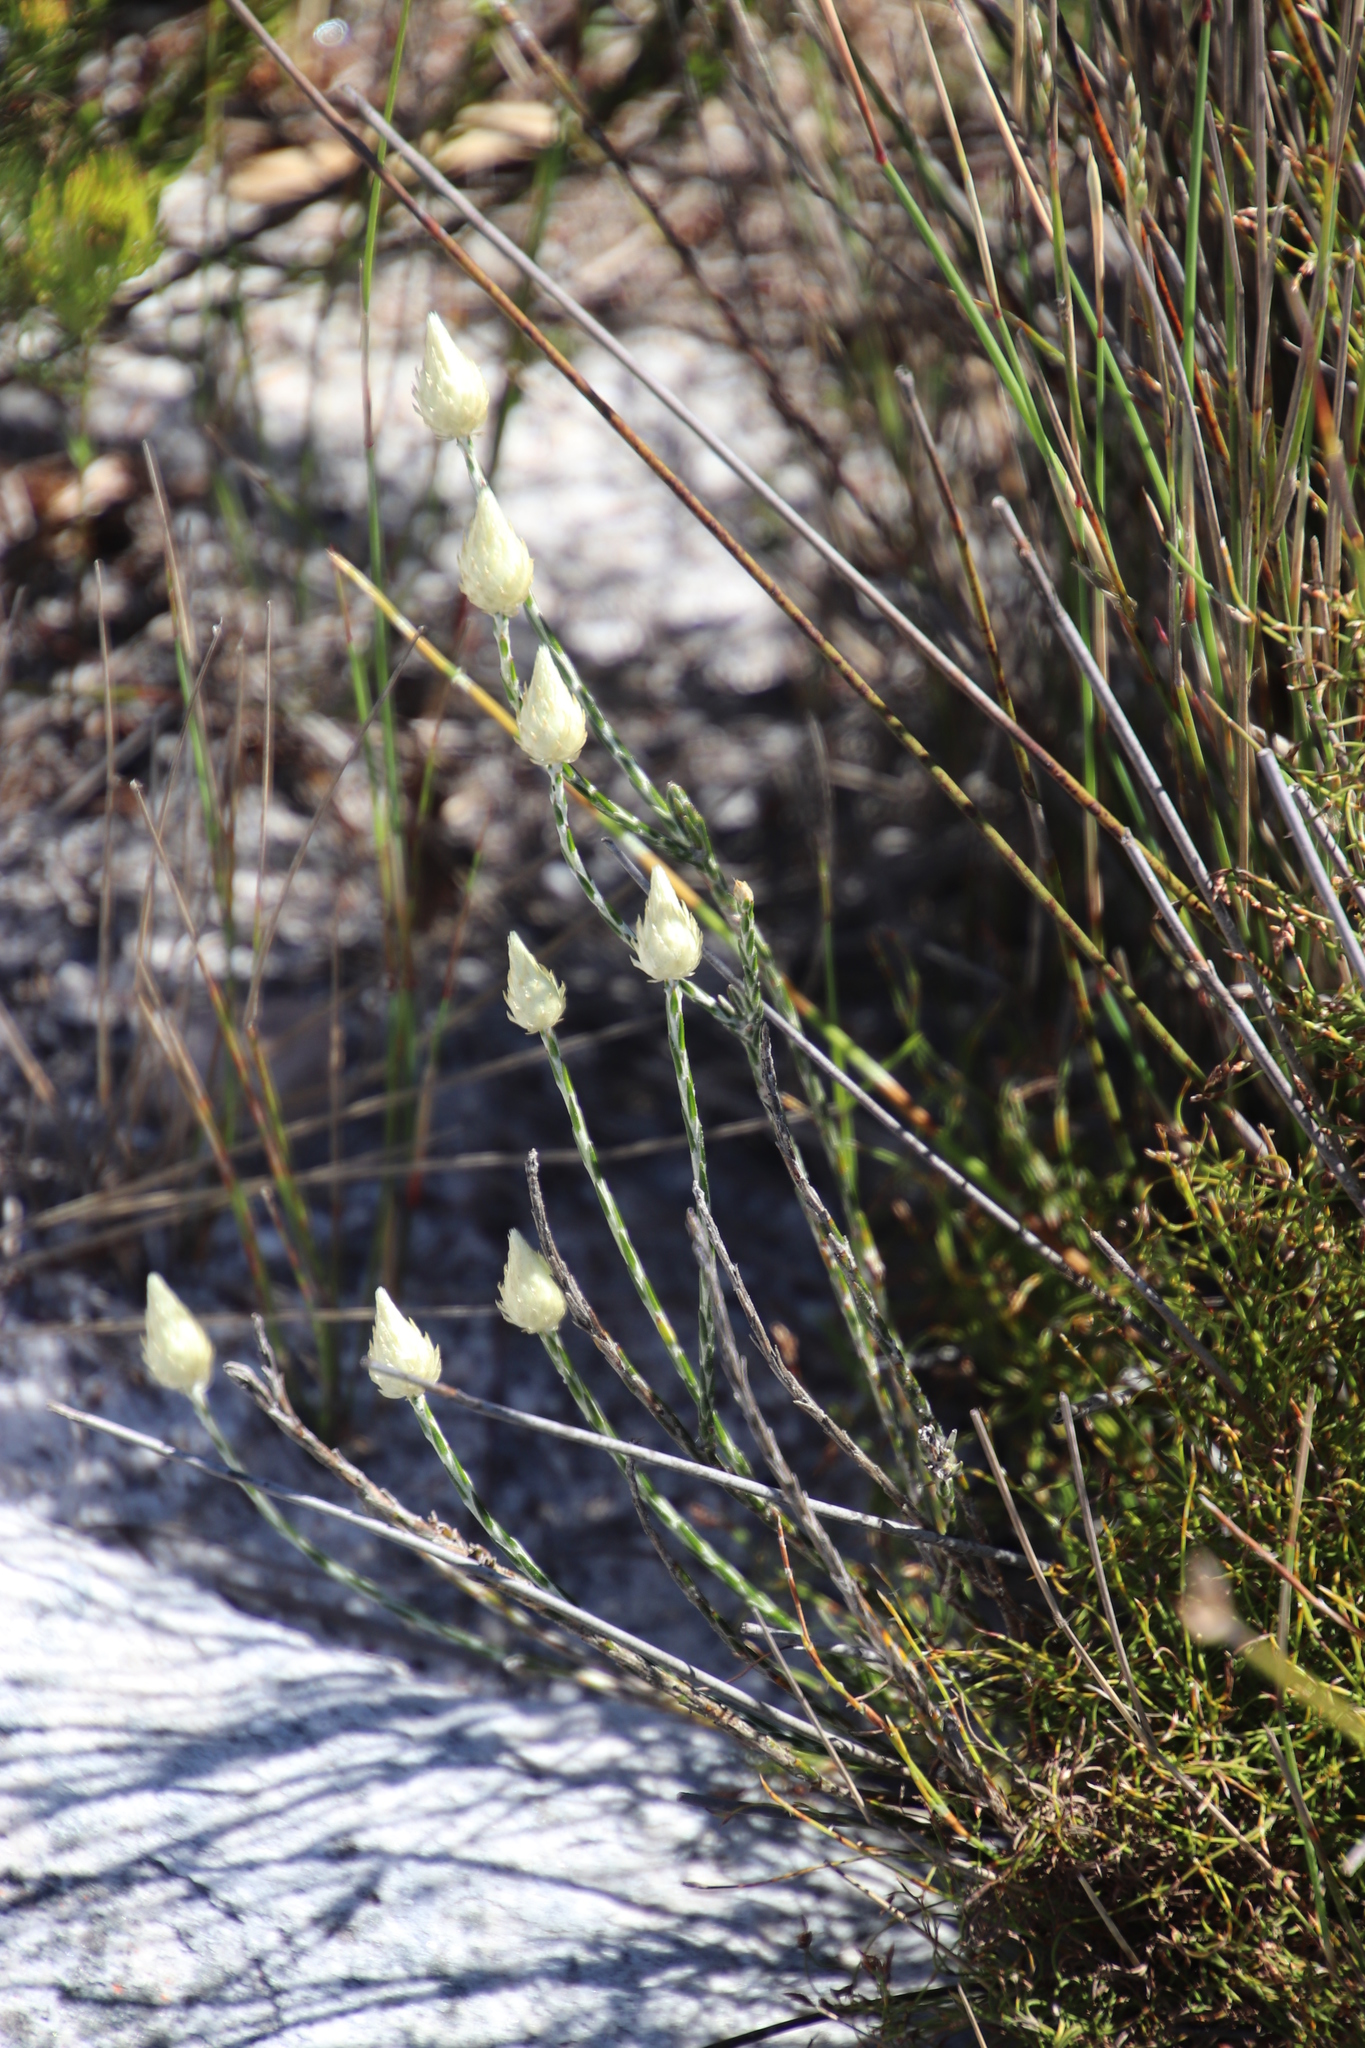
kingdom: Plantae
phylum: Tracheophyta
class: Magnoliopsida
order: Asterales
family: Asteraceae
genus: Edmondia
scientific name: Edmondia sesamoides
